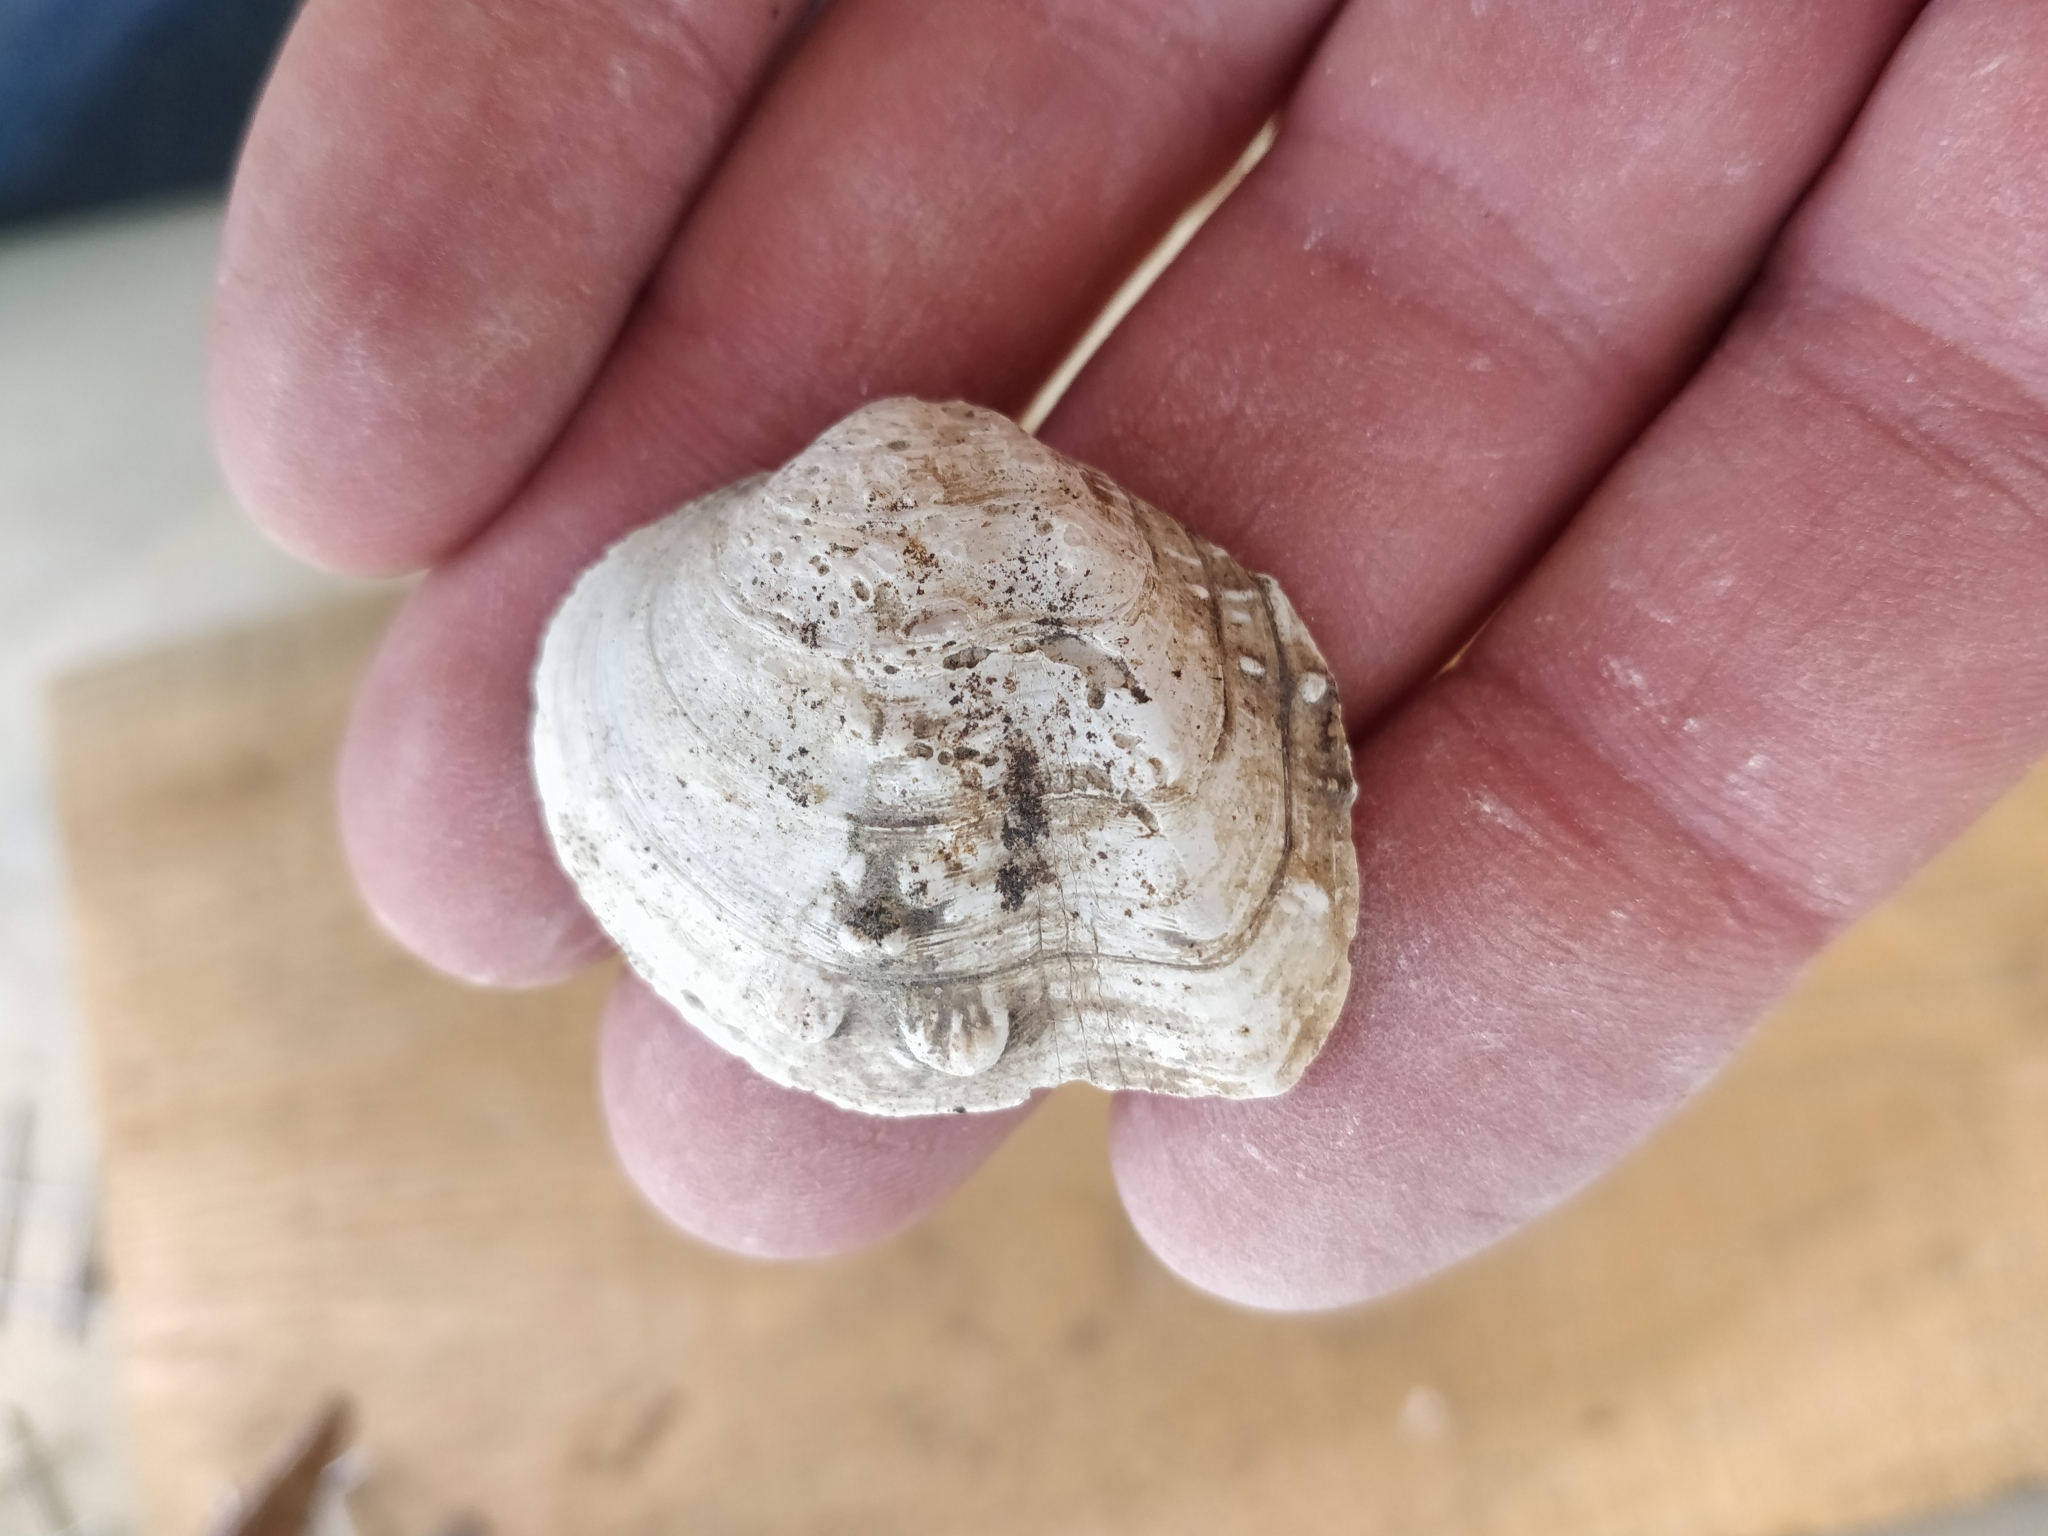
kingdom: Animalia
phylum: Mollusca
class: Bivalvia
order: Unionida
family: Unionidae
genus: Quadrula
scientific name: Quadrula quadrula
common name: Mapleleaf
